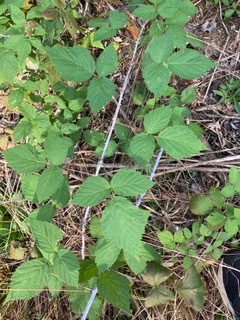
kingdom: Plantae
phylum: Tracheophyta
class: Magnoliopsida
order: Rosales
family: Rosaceae
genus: Rubus
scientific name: Rubus occidentalis
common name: Black raspberry
